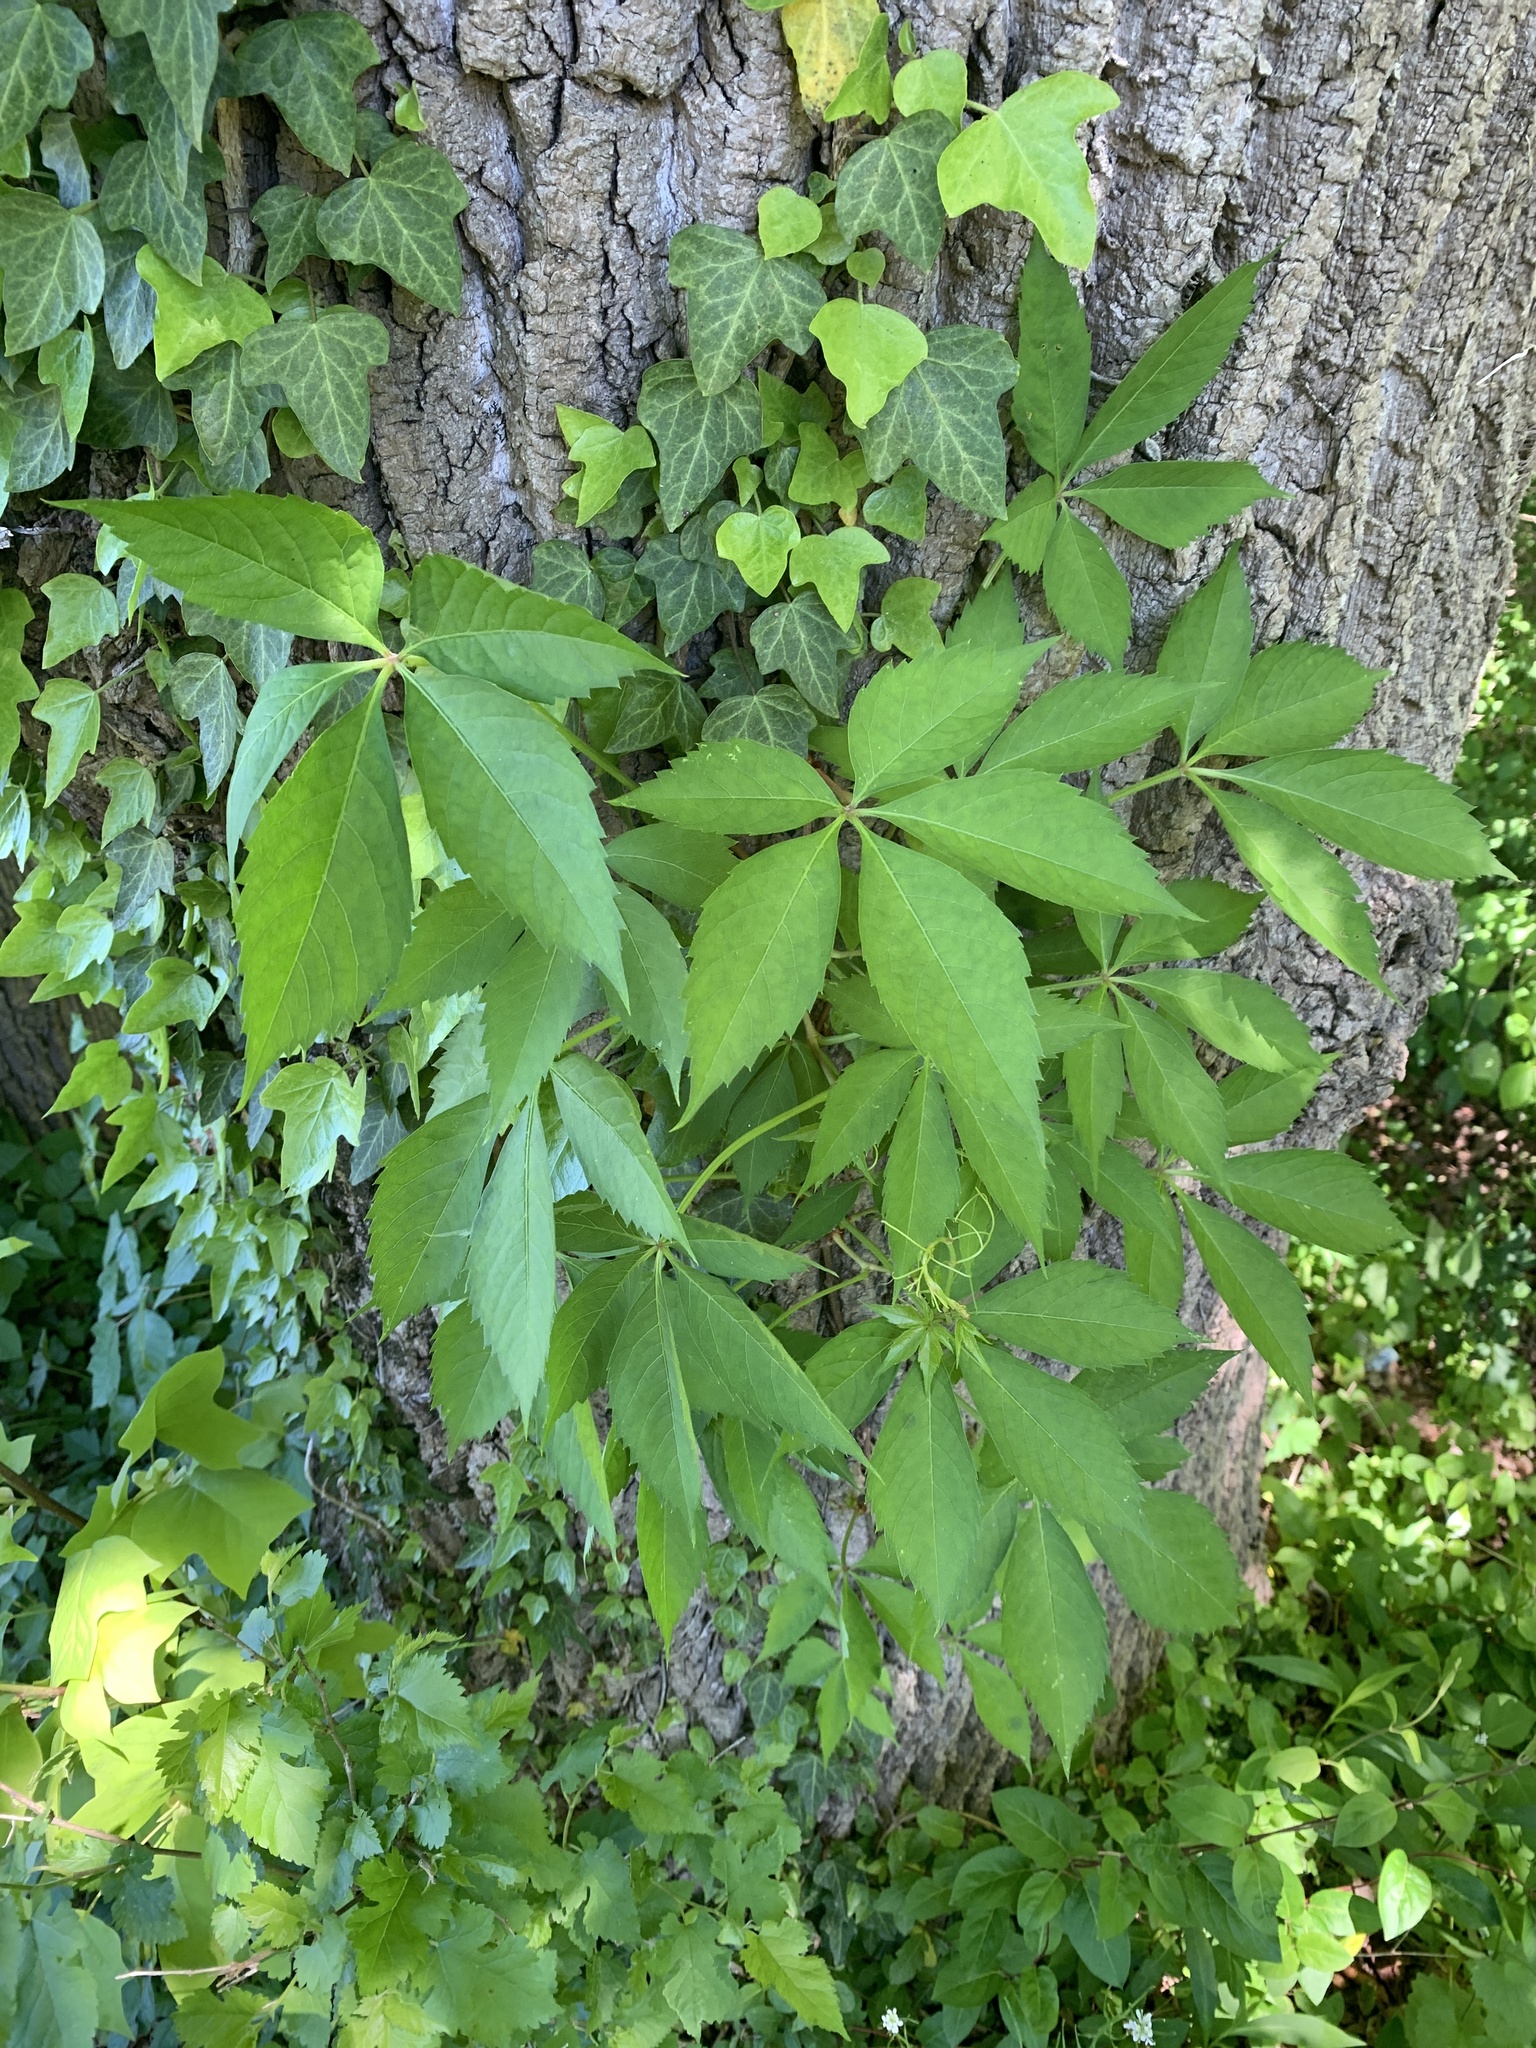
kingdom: Plantae
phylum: Tracheophyta
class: Magnoliopsida
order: Vitales
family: Vitaceae
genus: Parthenocissus
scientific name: Parthenocissus quinquefolia
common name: Virginia-creeper
